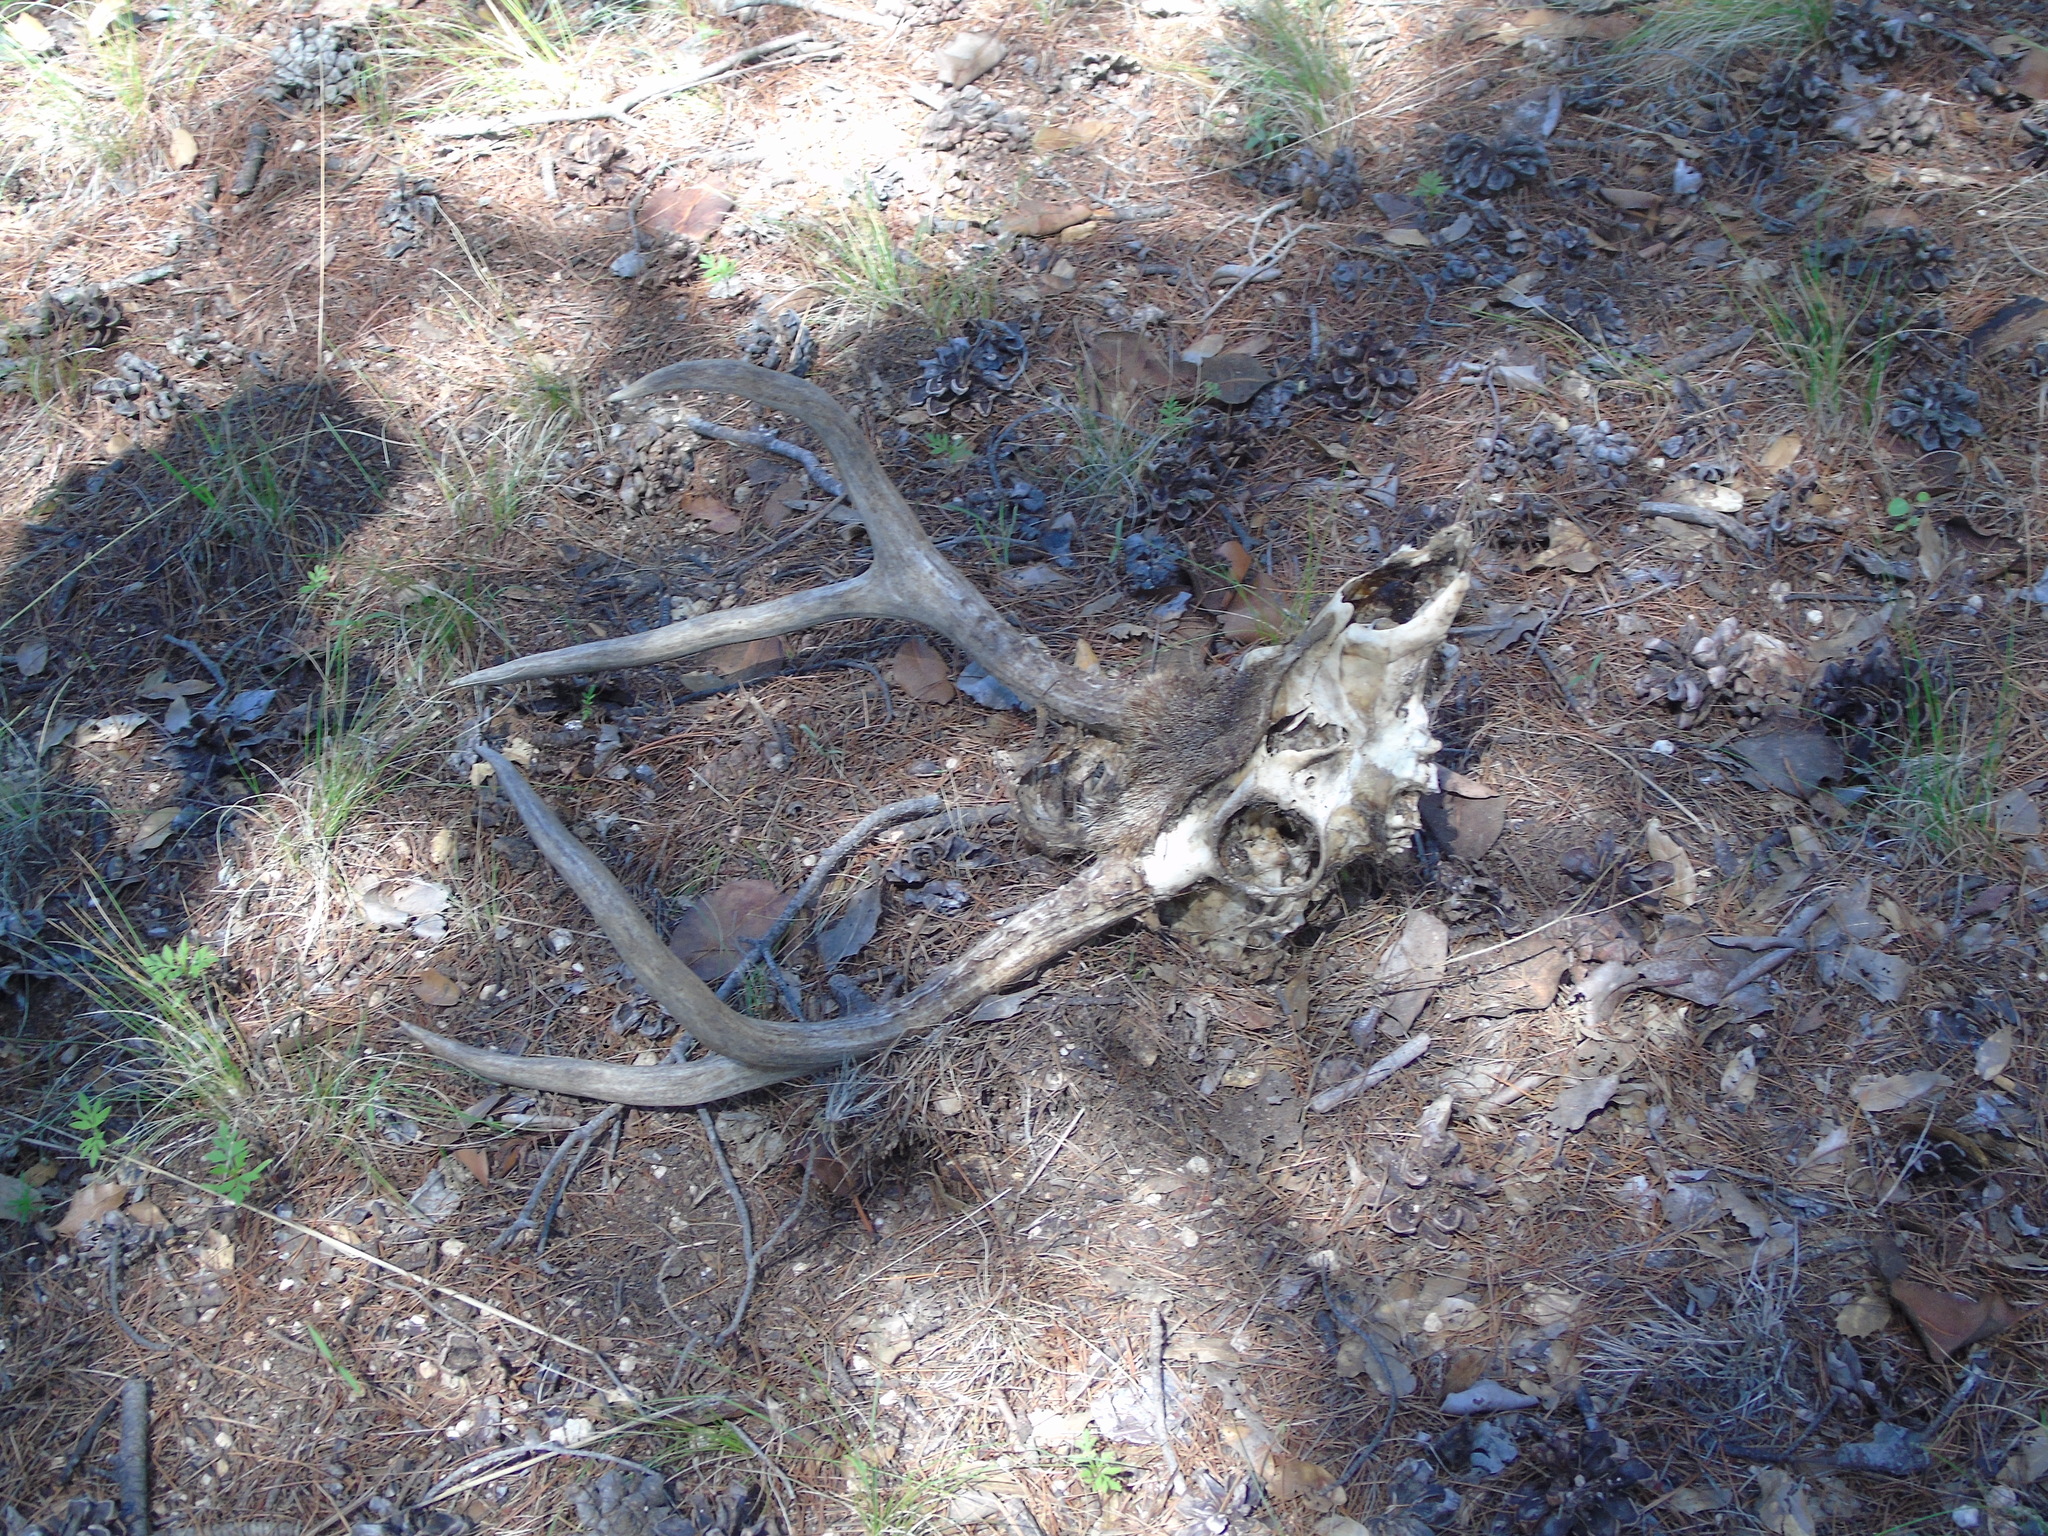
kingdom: Animalia
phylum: Chordata
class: Mammalia
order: Artiodactyla
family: Cervidae
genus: Odocoileus
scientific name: Odocoileus hemionus
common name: Mule deer
